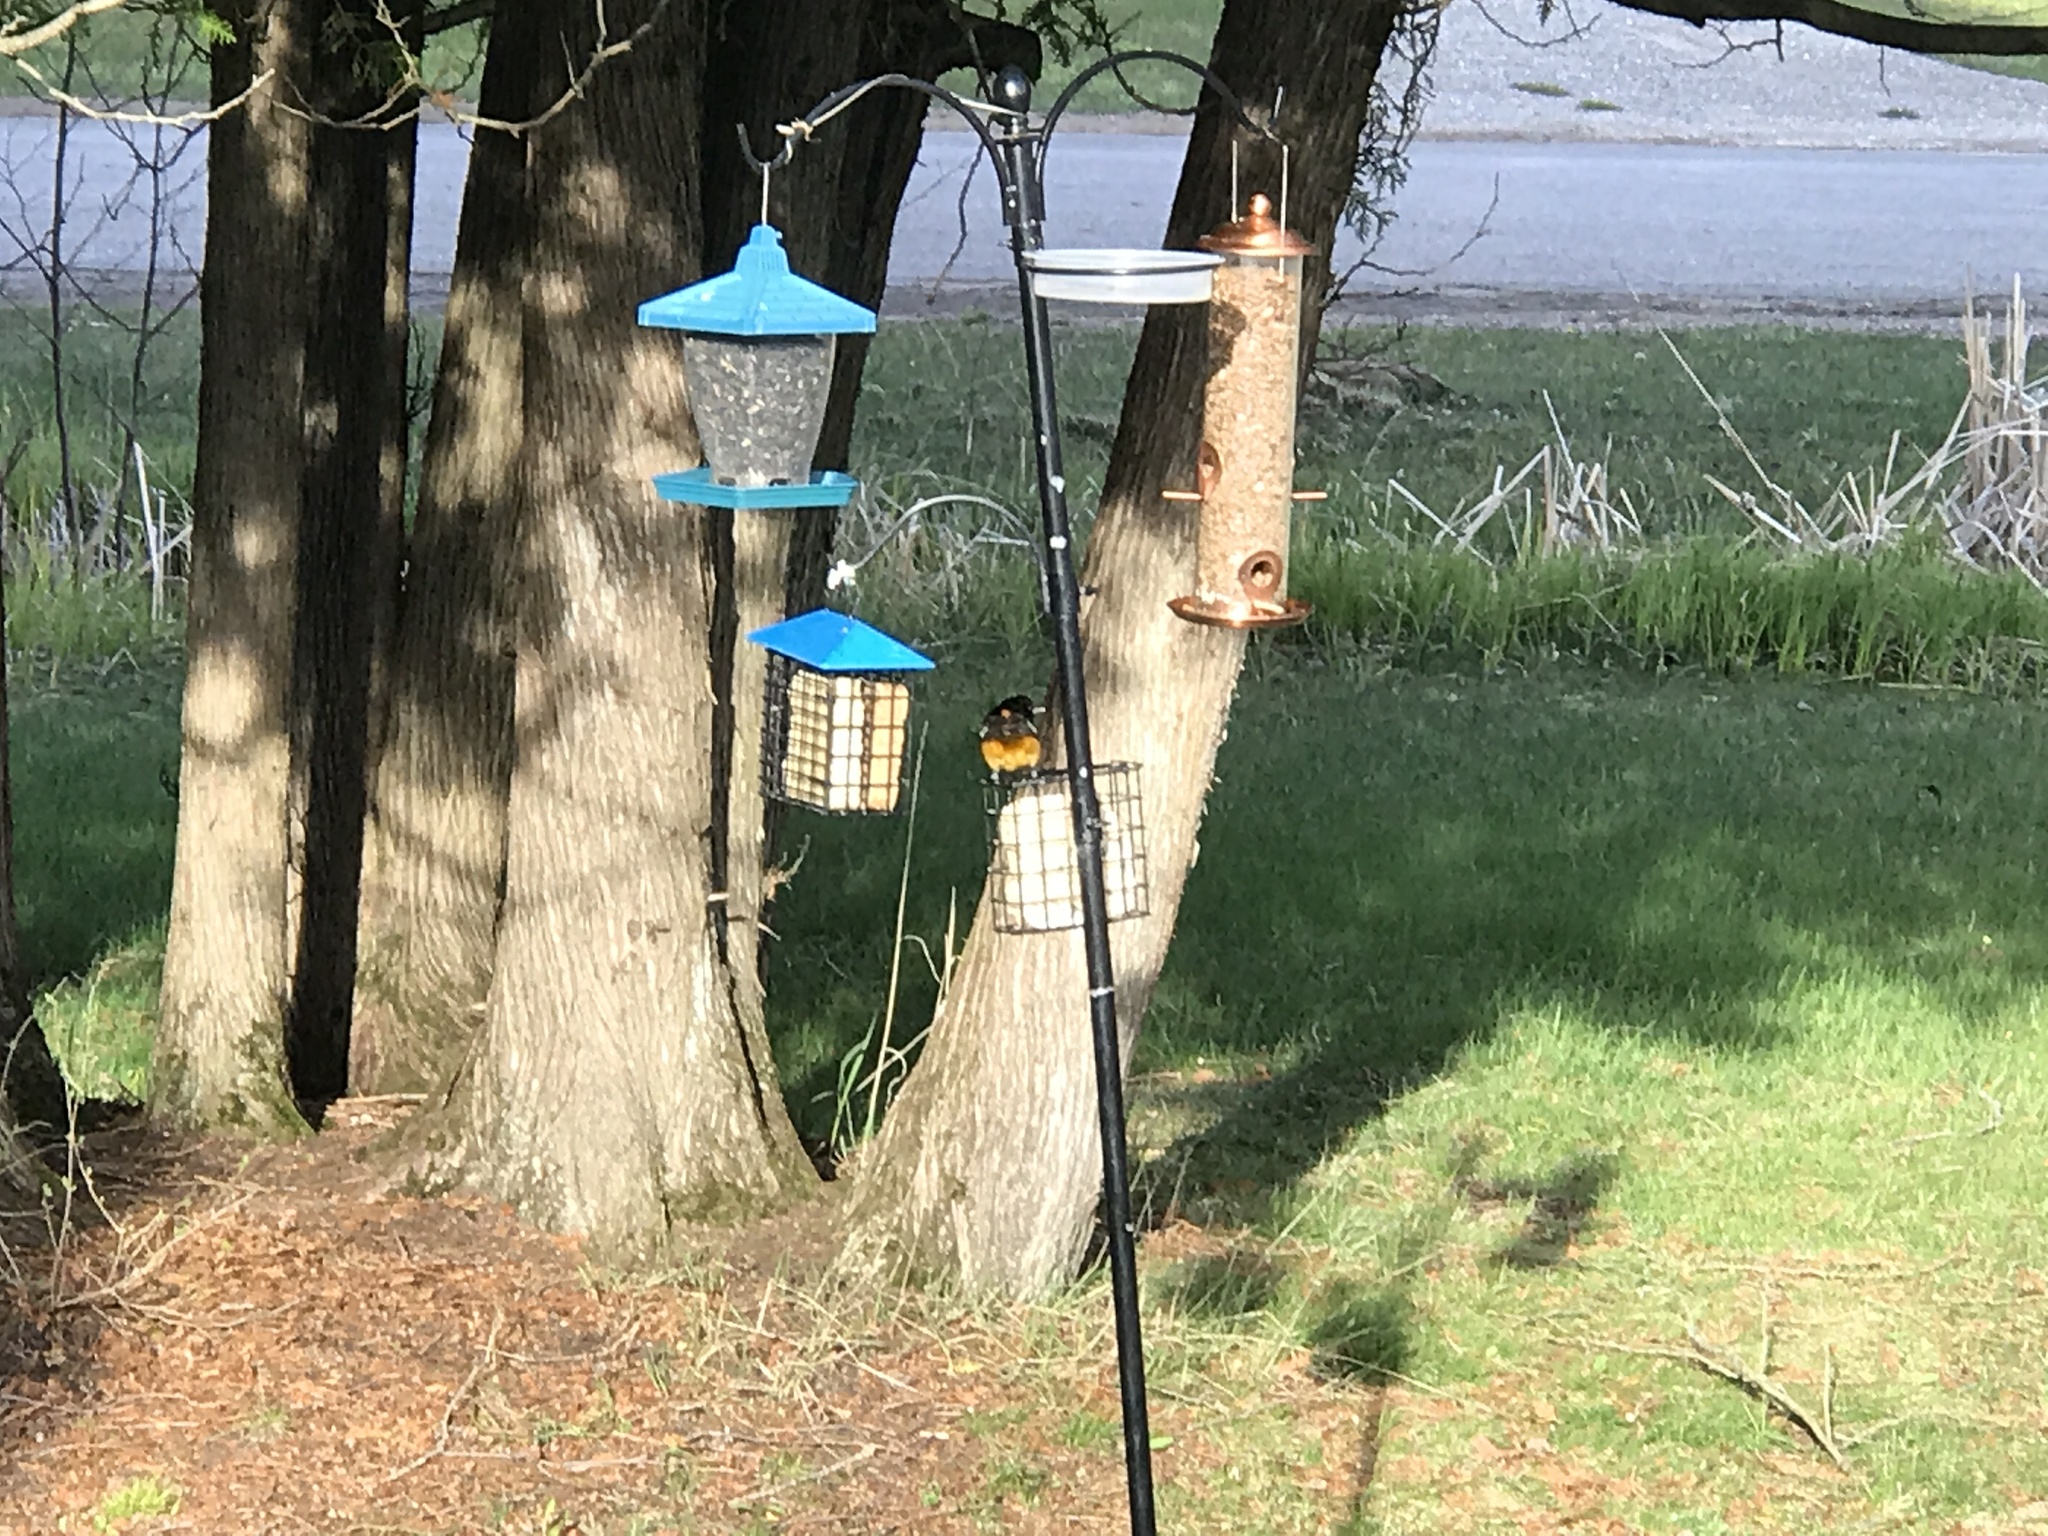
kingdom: Animalia
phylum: Chordata
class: Aves
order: Passeriformes
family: Icteridae
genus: Icterus
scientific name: Icterus galbula
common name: Baltimore oriole
